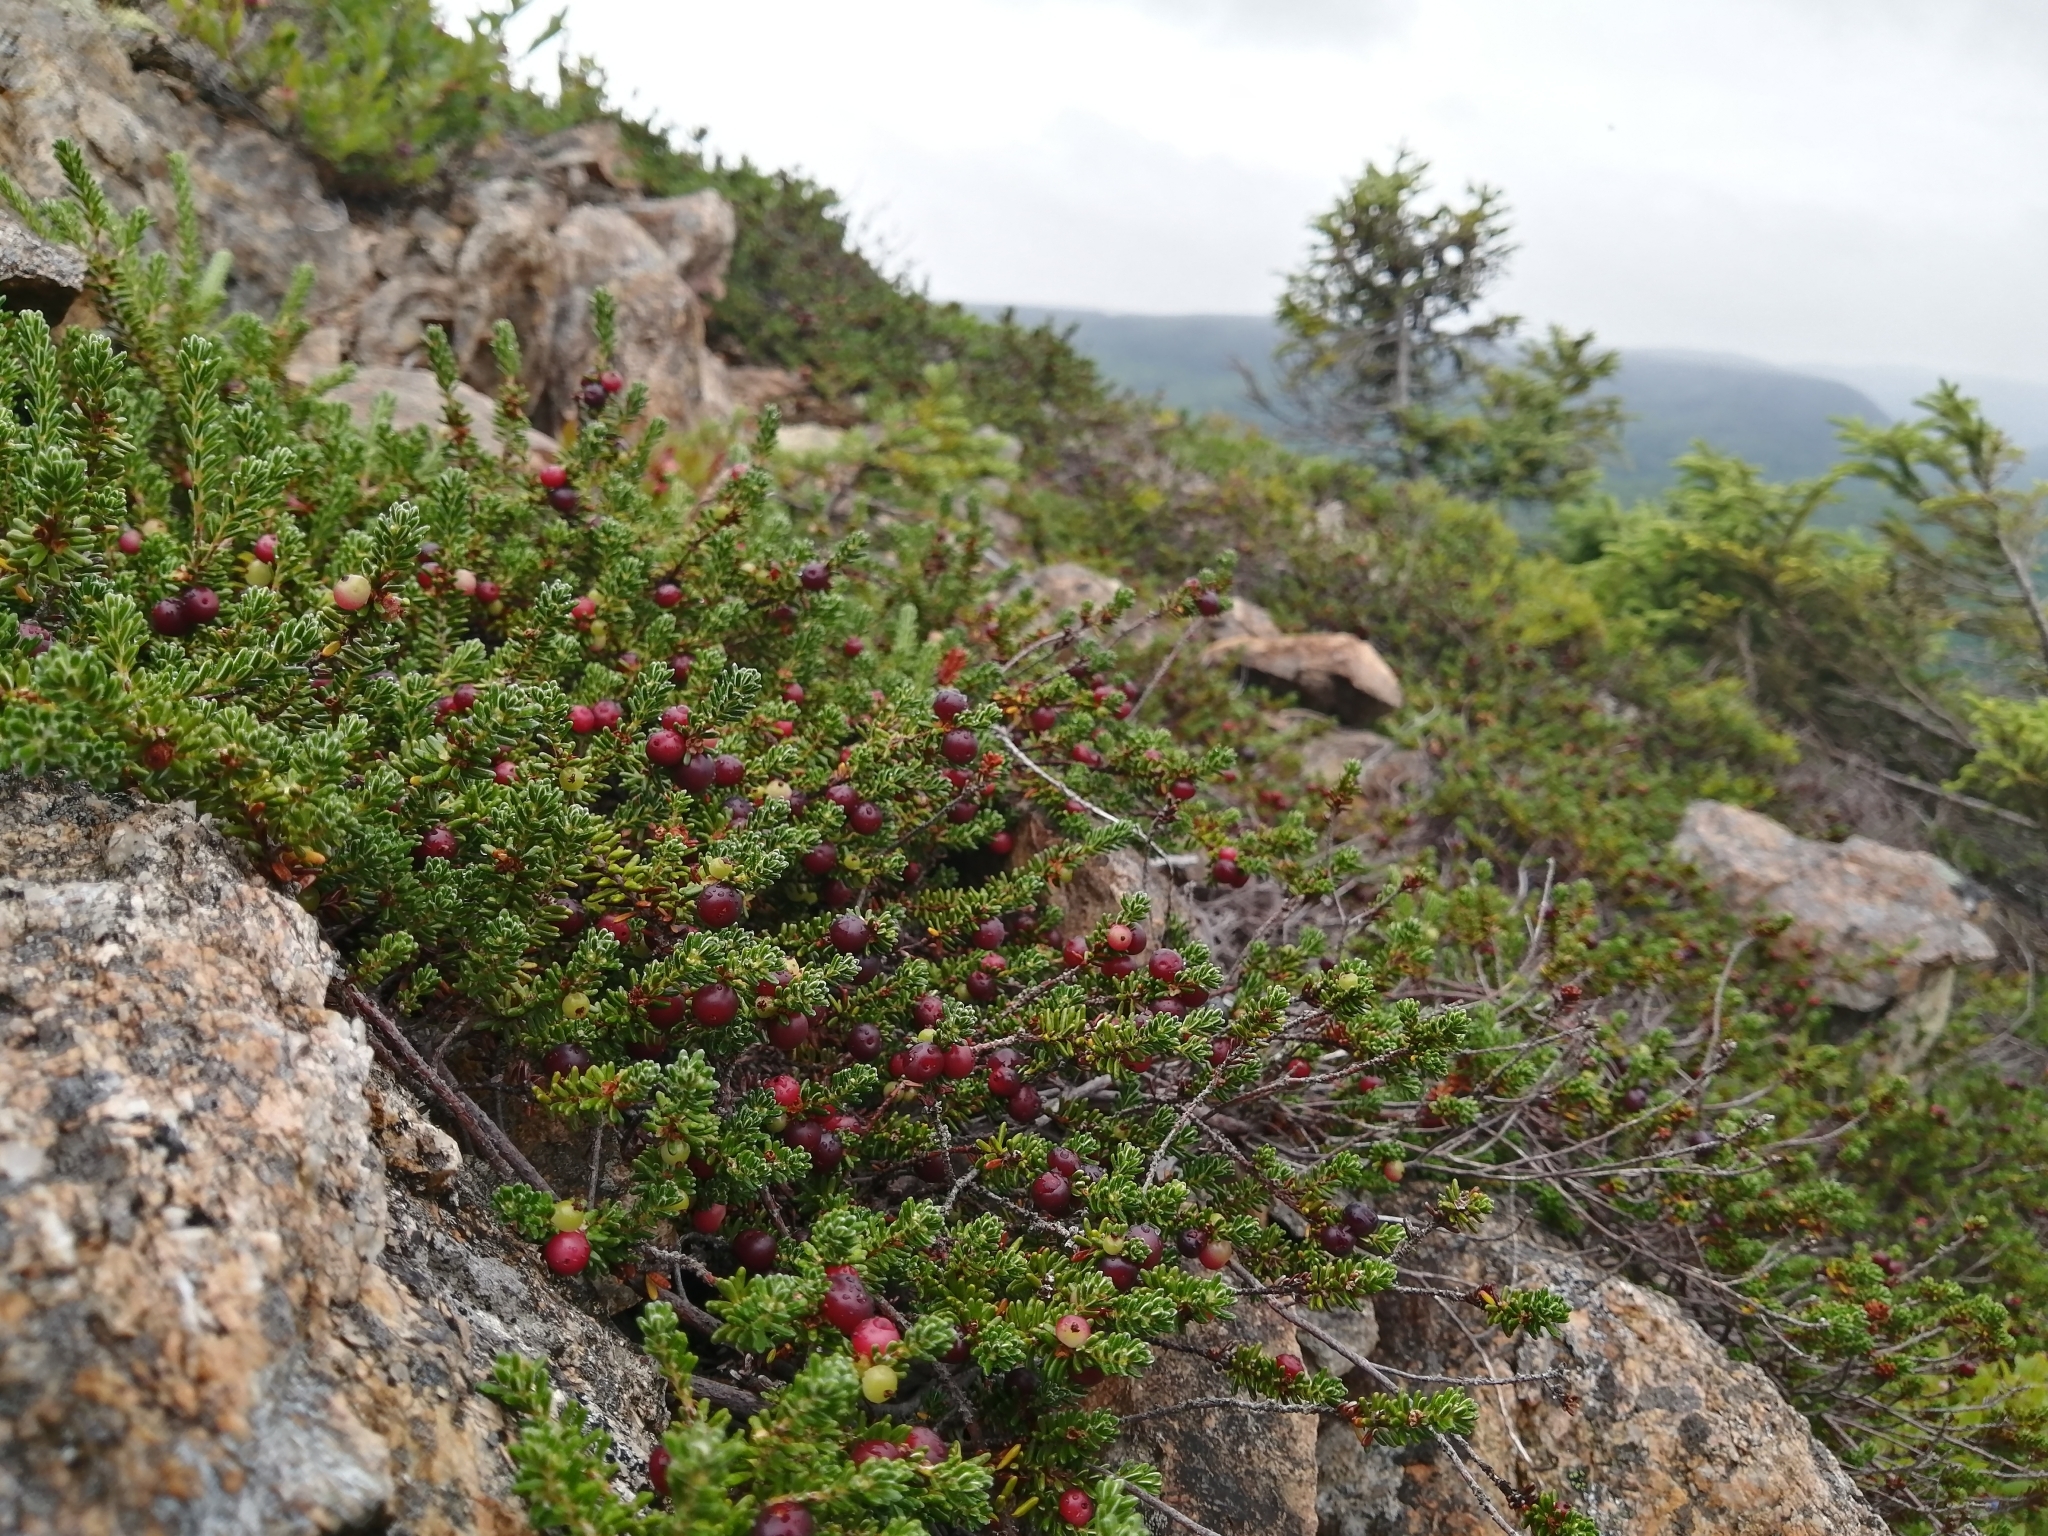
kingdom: Plantae
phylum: Tracheophyta
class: Magnoliopsida
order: Ericales
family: Ericaceae
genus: Empetrum
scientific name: Empetrum eamesii
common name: Pink crowberry
